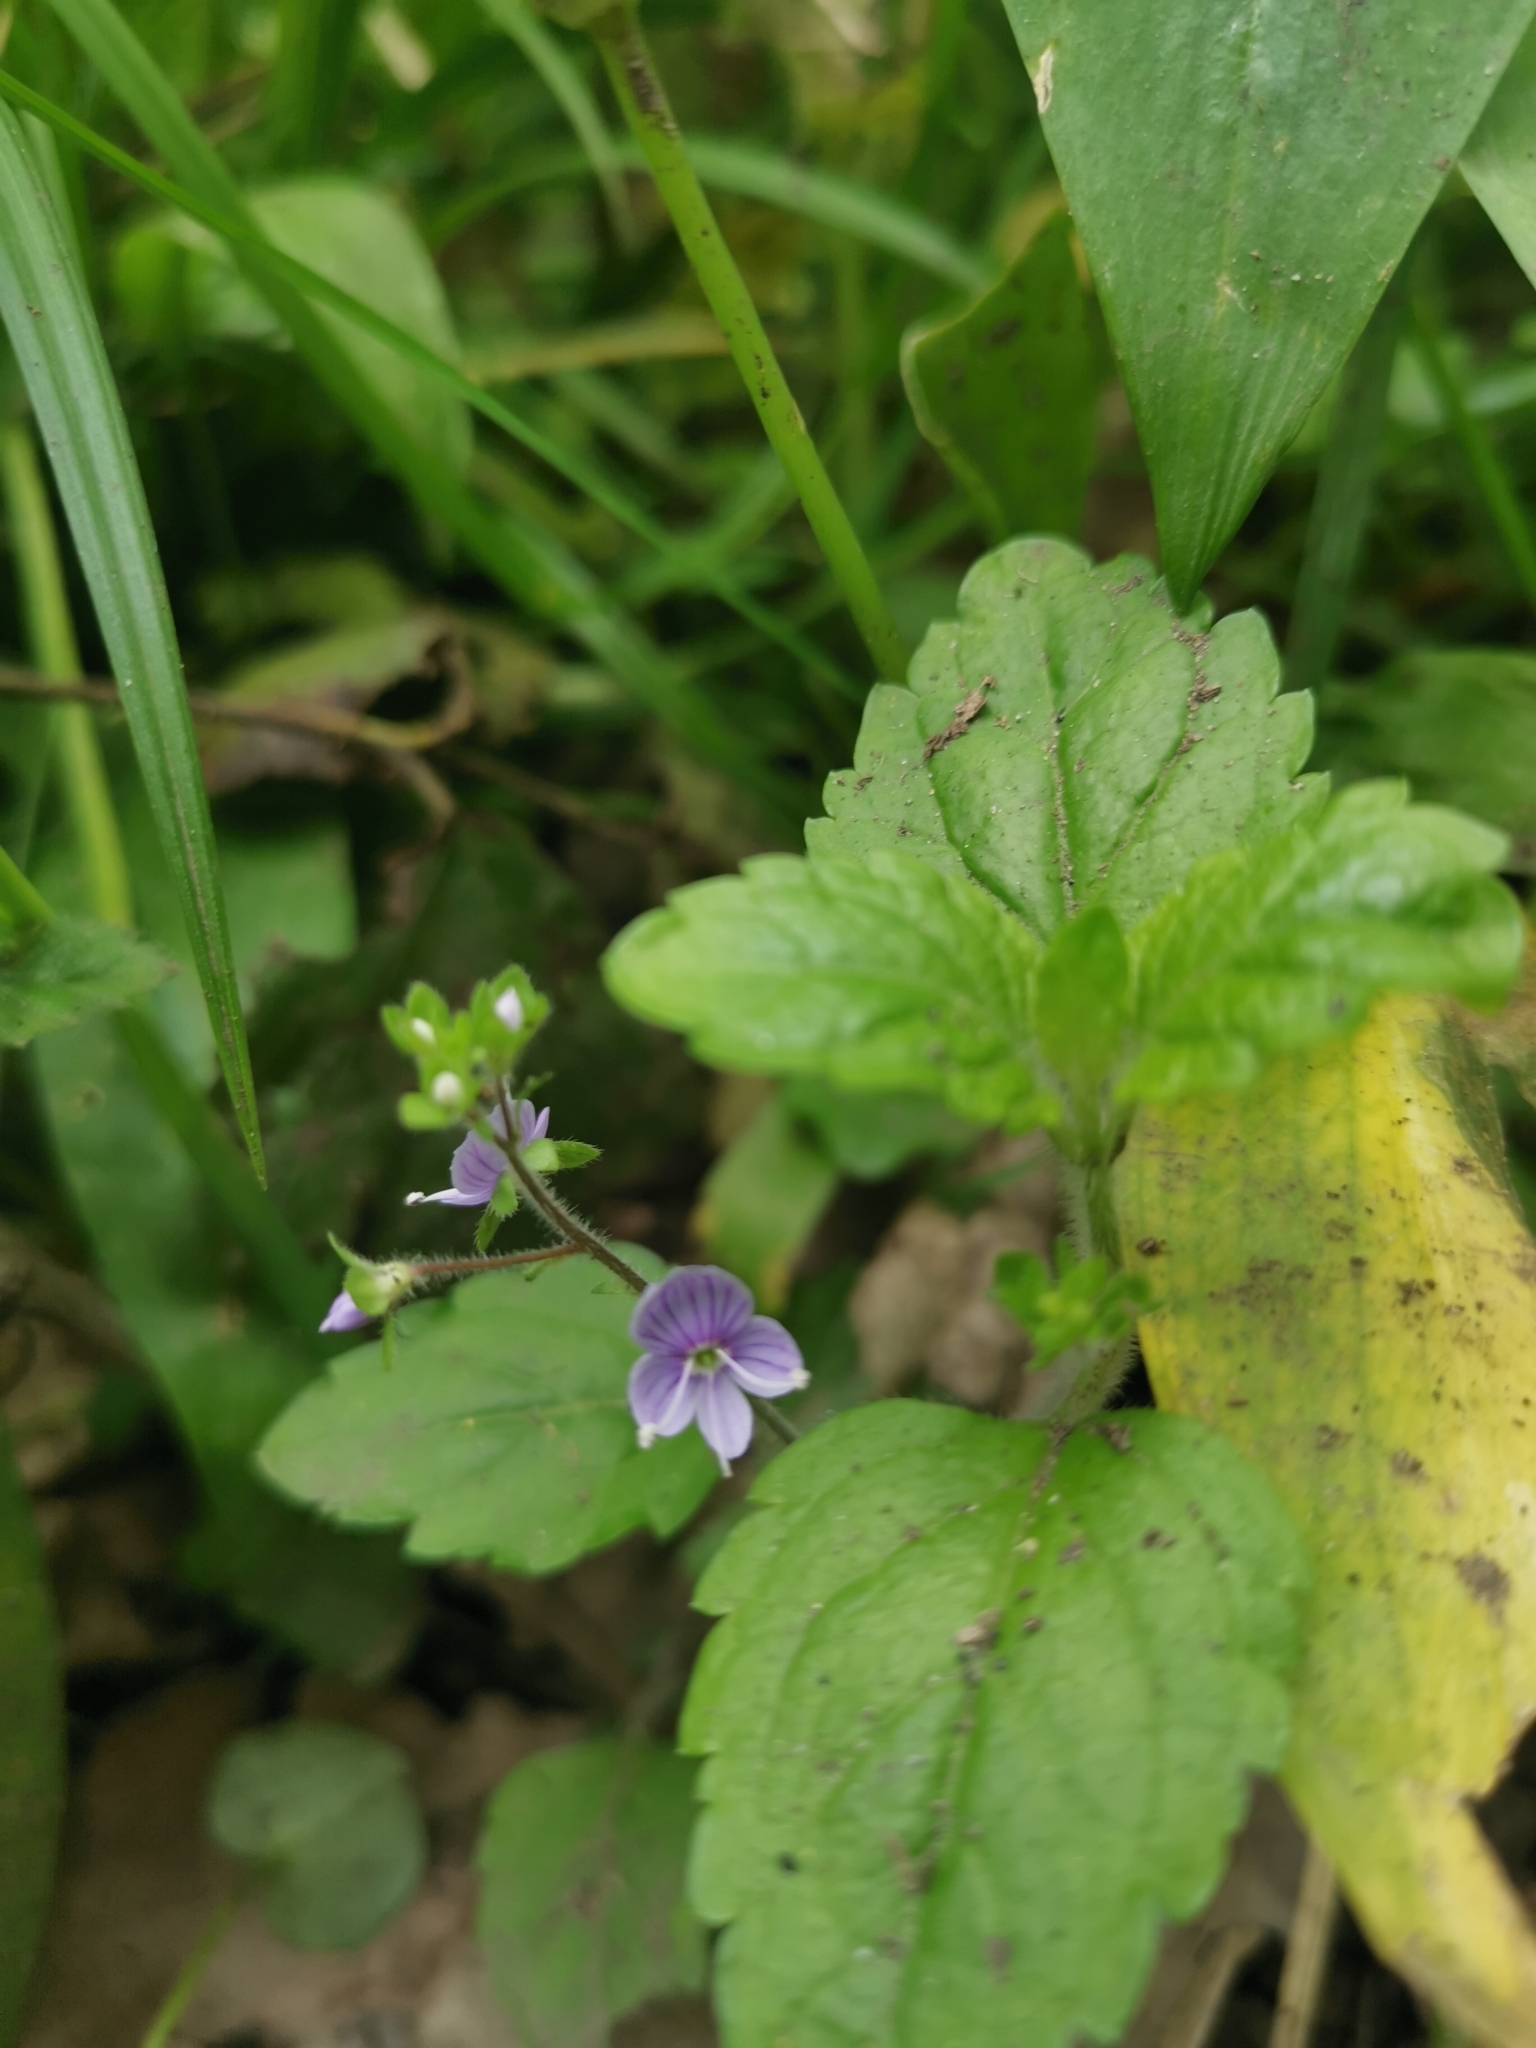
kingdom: Plantae
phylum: Tracheophyta
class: Magnoliopsida
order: Lamiales
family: Plantaginaceae
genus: Veronica
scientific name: Veronica montana
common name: Wood speedwell
